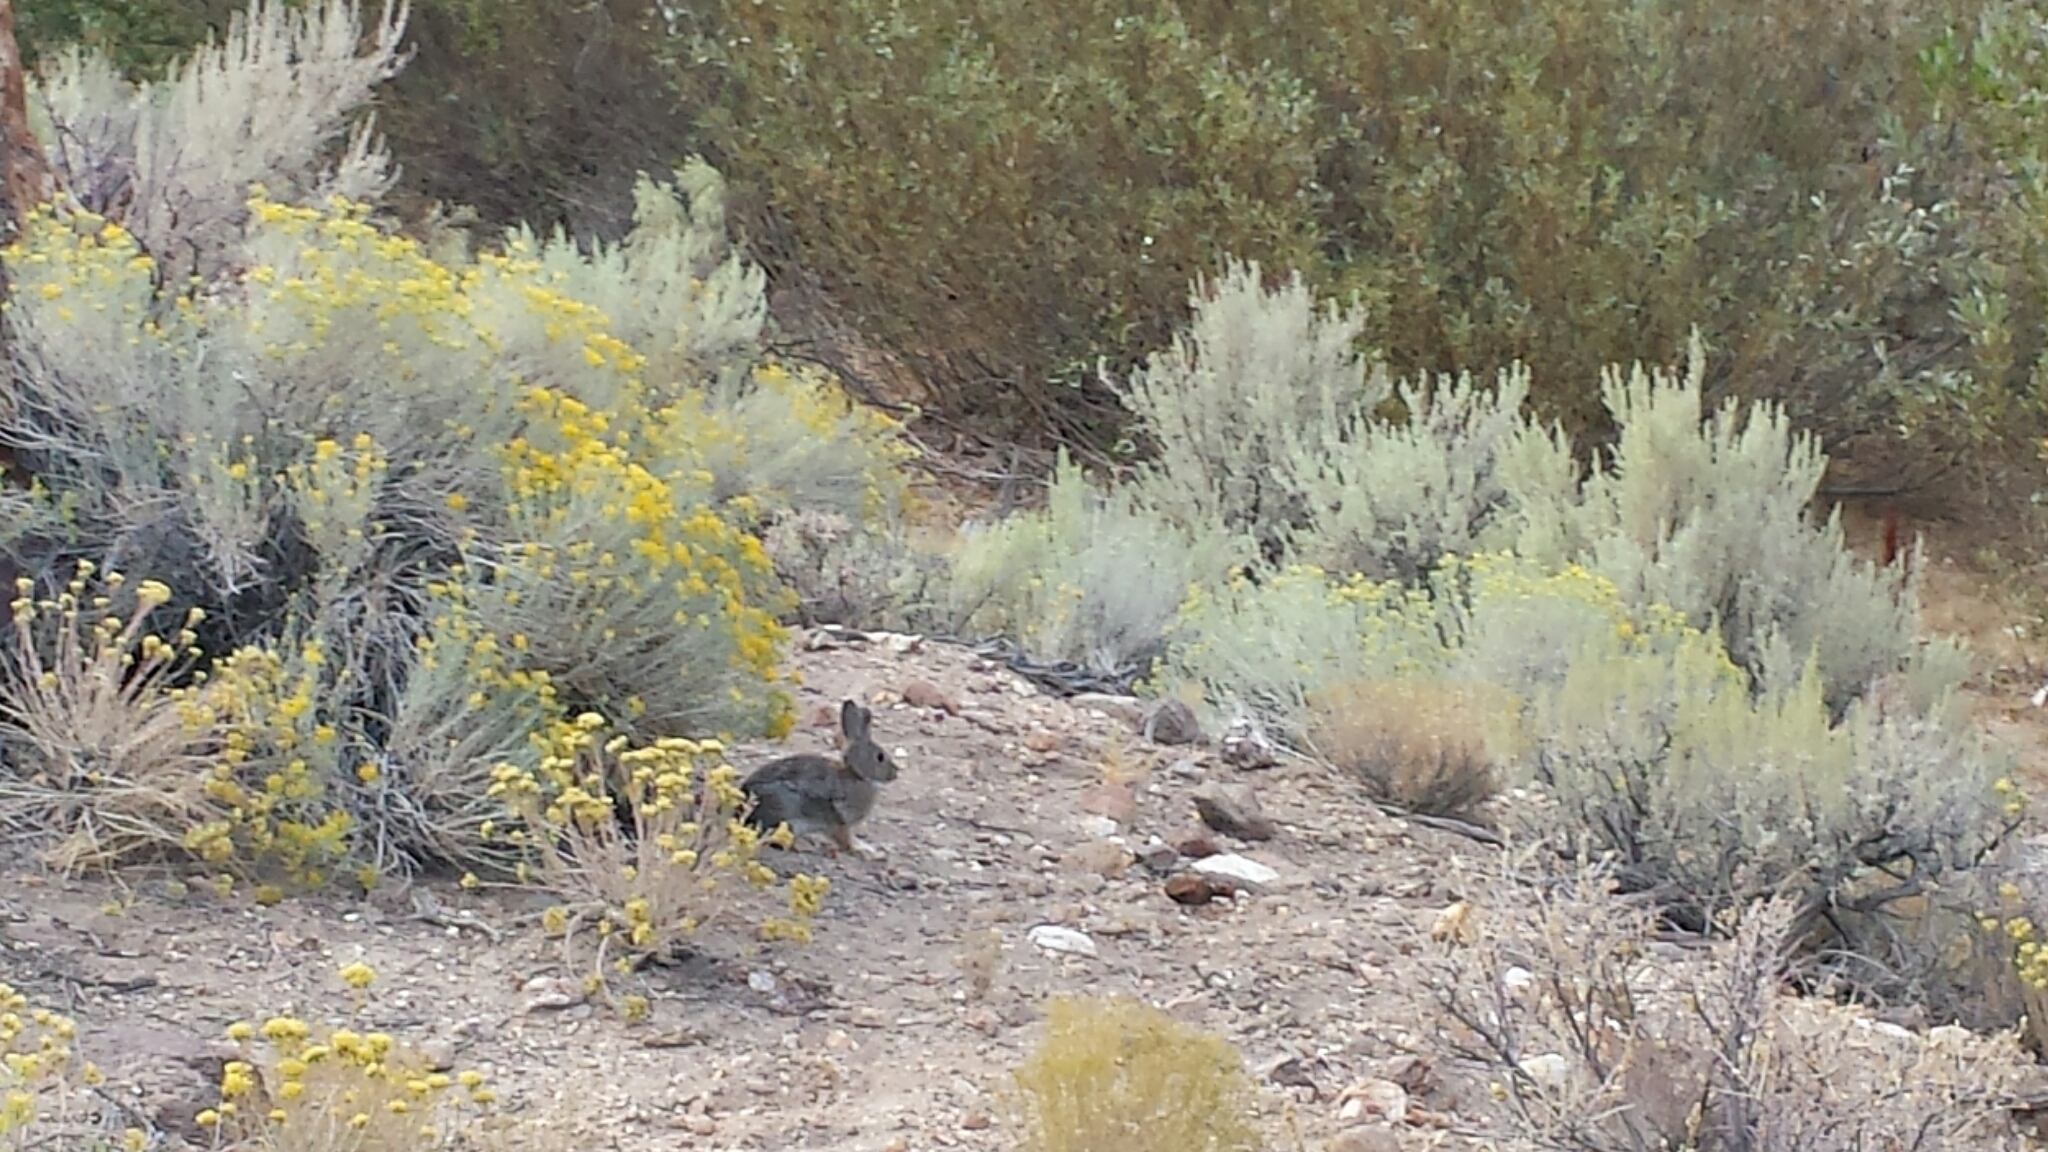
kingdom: Animalia
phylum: Chordata
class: Mammalia
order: Lagomorpha
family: Leporidae
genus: Sylvilagus
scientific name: Sylvilagus nuttallii
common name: Mountain cottontail
